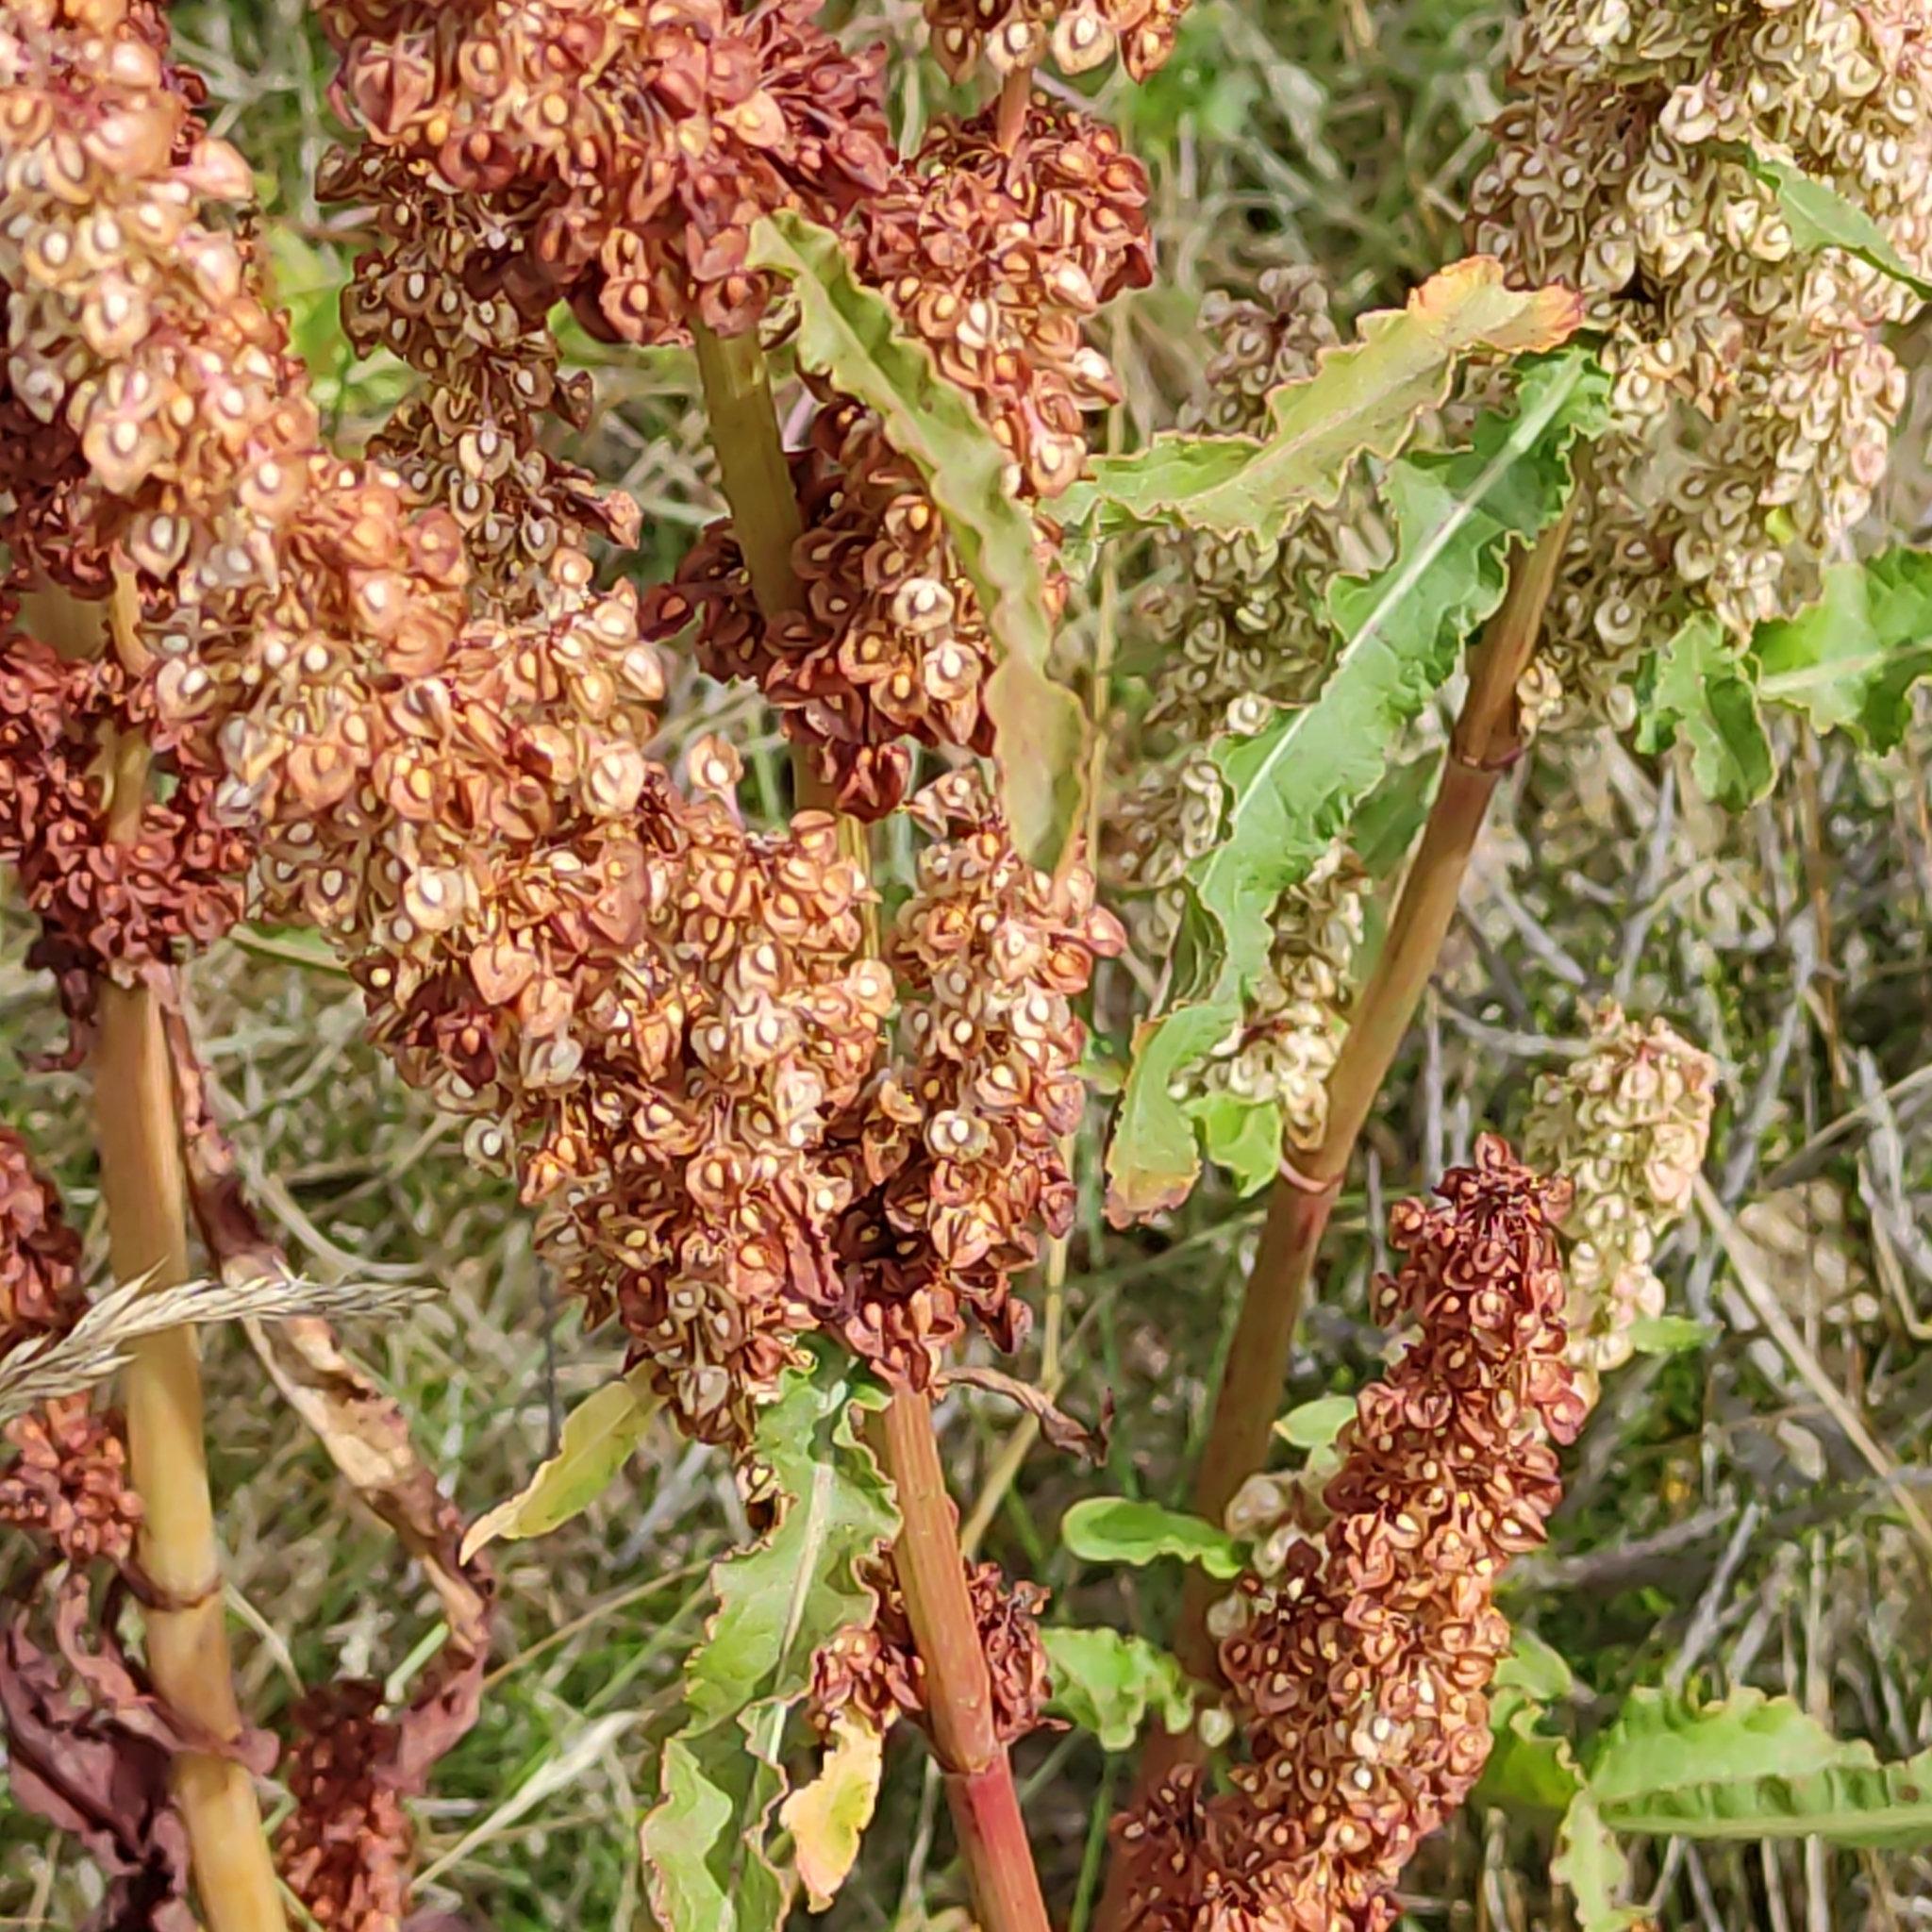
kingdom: Plantae
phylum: Tracheophyta
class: Magnoliopsida
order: Caryophyllales
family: Polygonaceae
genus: Rumex
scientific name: Rumex crispus
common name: Curled dock
